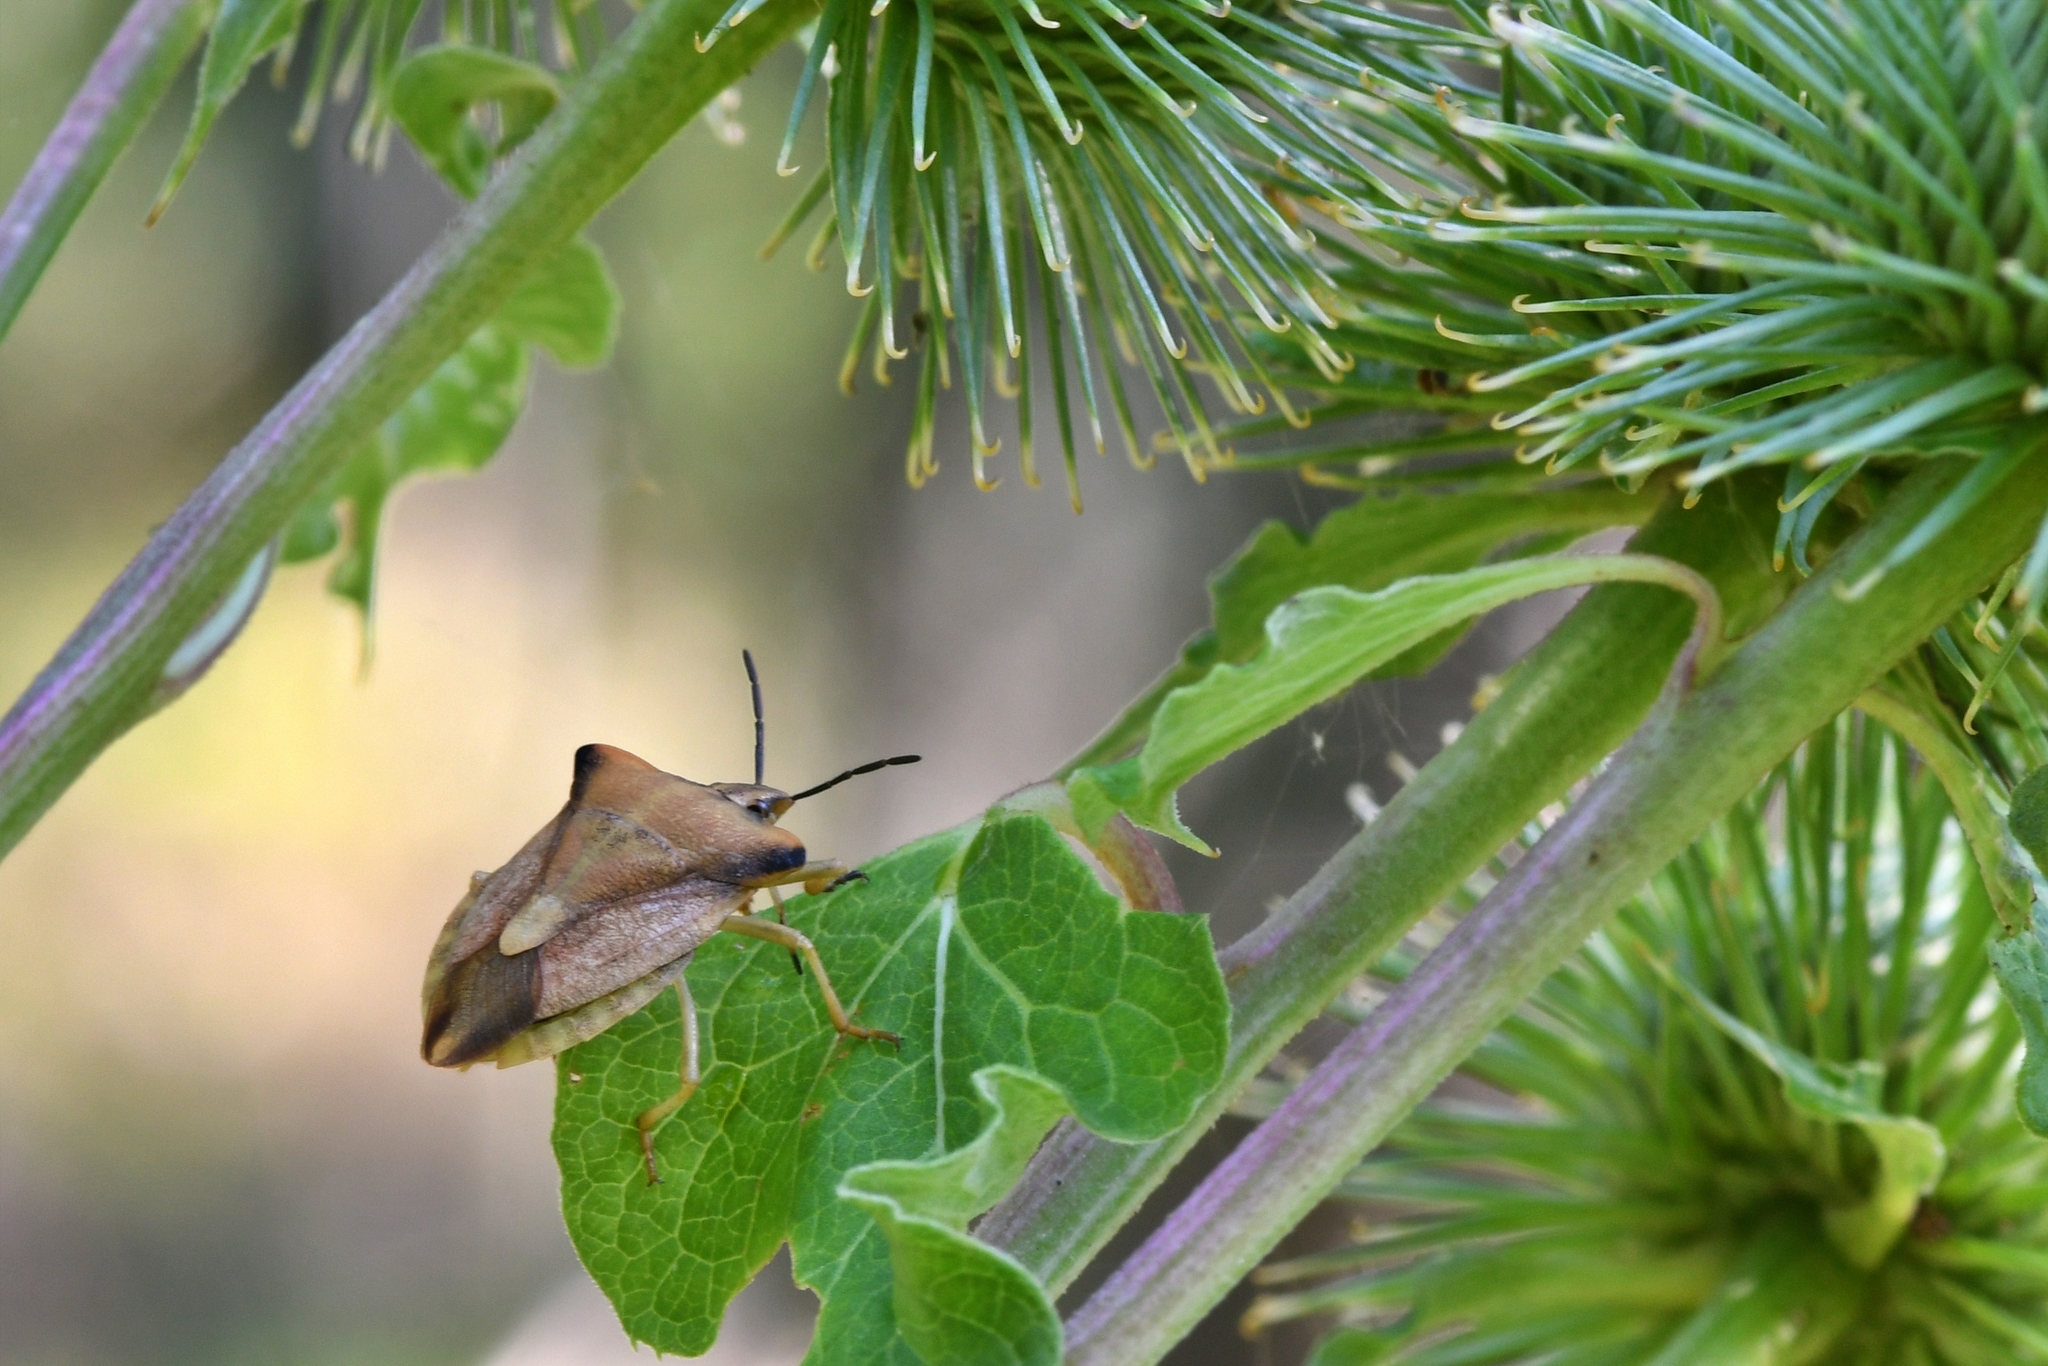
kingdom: Animalia
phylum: Arthropoda
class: Insecta
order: Hemiptera
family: Pentatomidae
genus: Carpocoris
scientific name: Carpocoris fuscispinus
